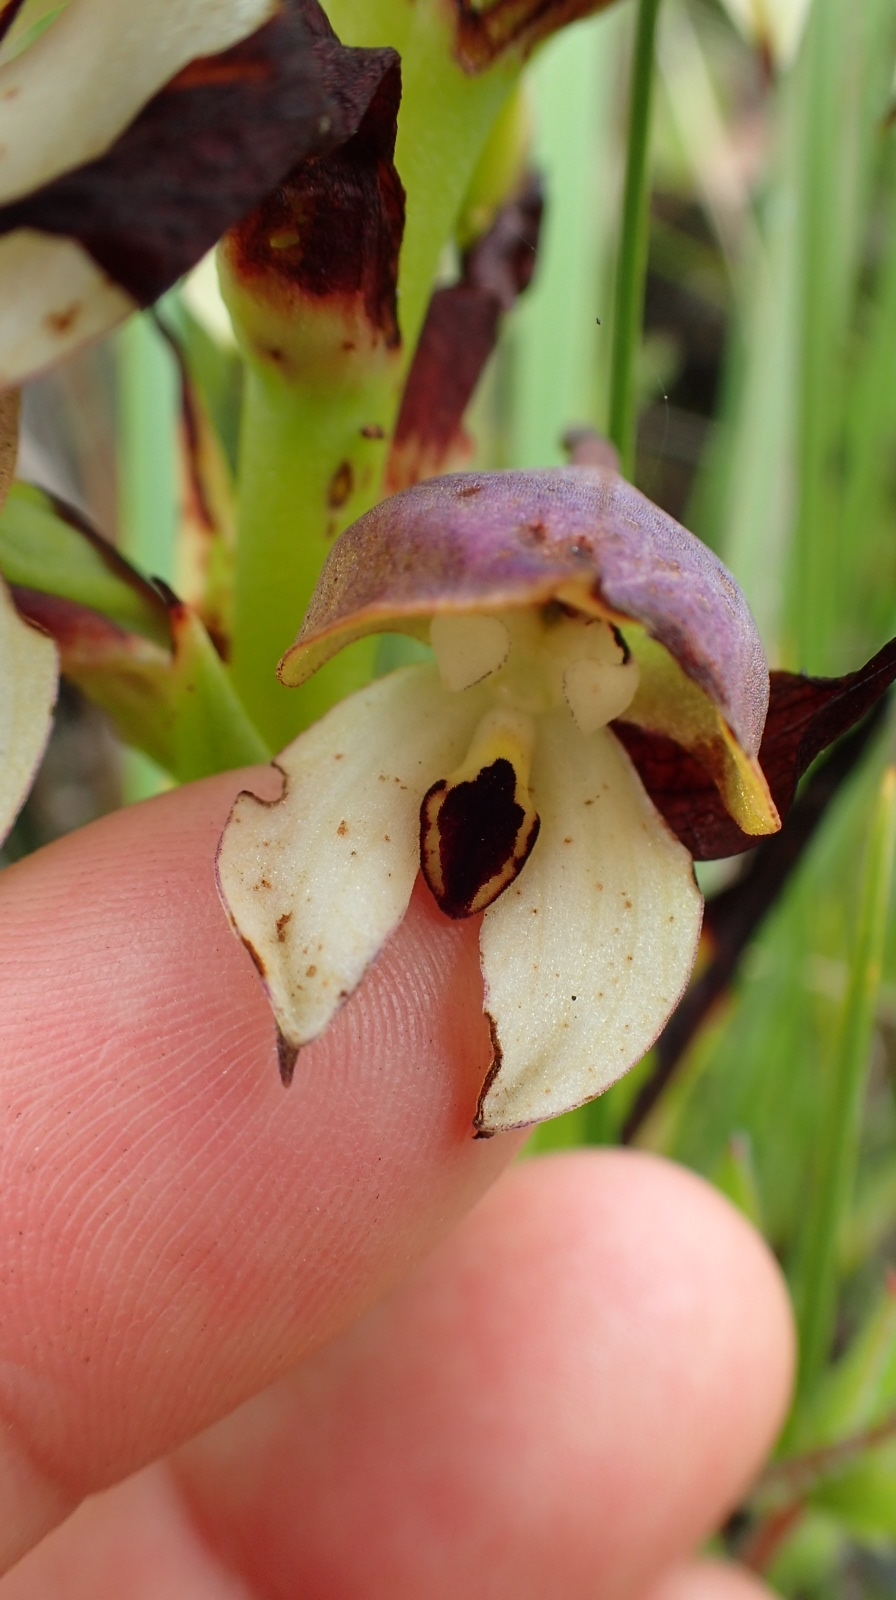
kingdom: Plantae
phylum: Tracheophyta
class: Liliopsida
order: Asparagales
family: Orchidaceae
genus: Disa
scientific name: Disa cornuta
